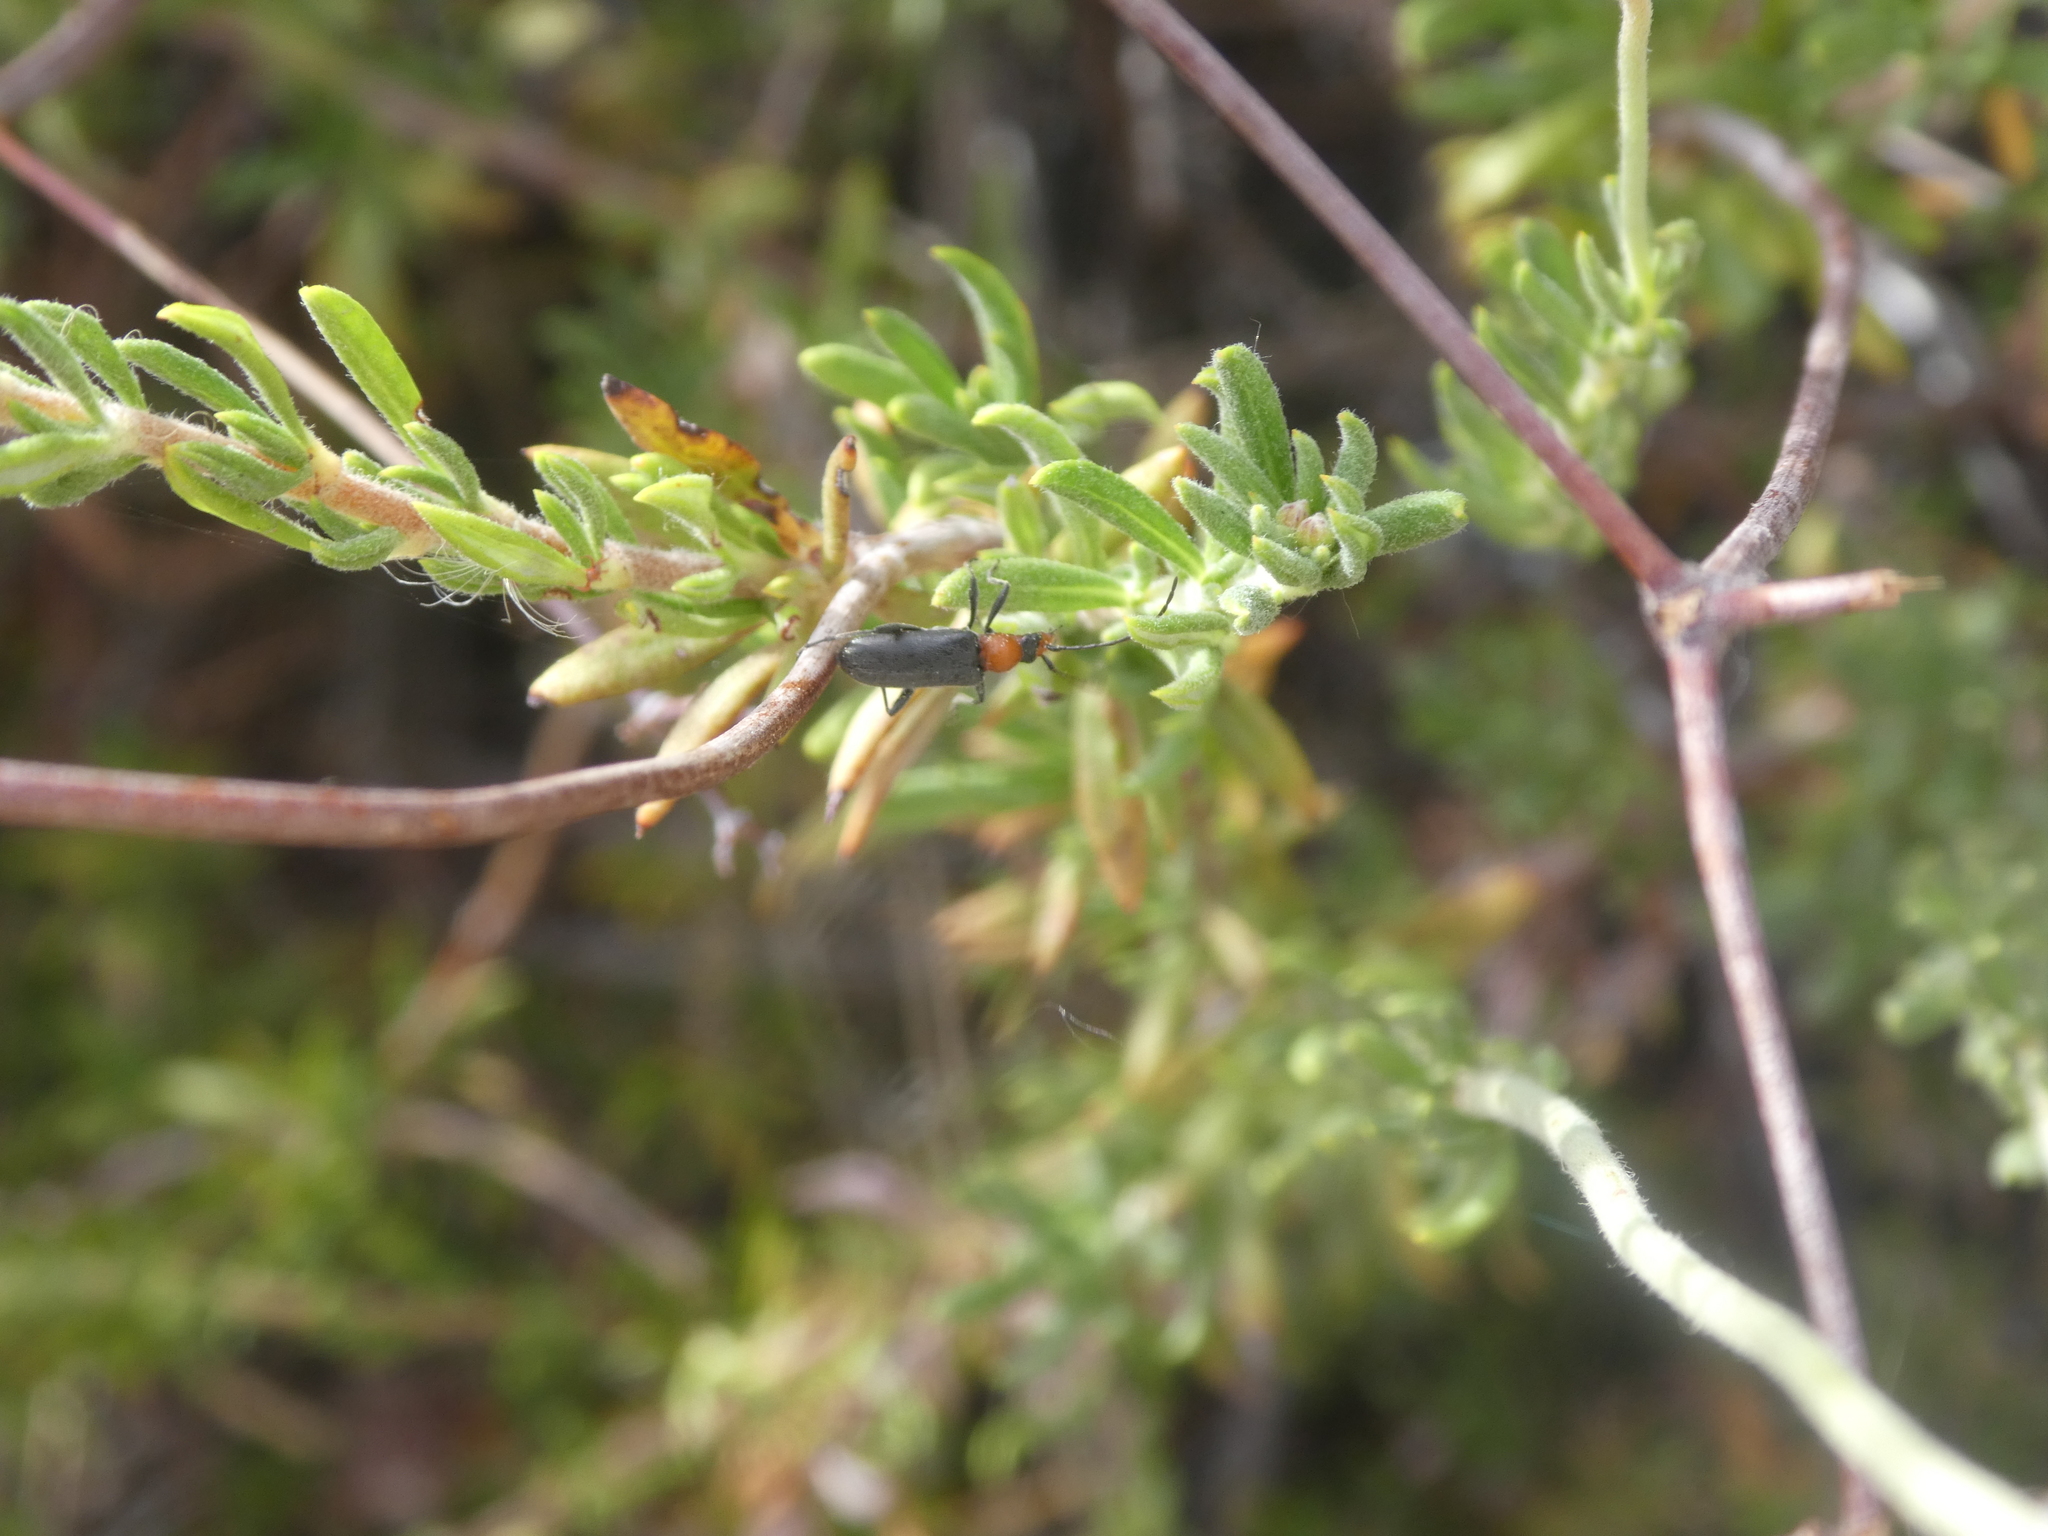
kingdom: Animalia
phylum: Arthropoda
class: Insecta
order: Coleoptera
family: Cerambycidae
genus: Cortodera
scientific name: Cortodera falsa
